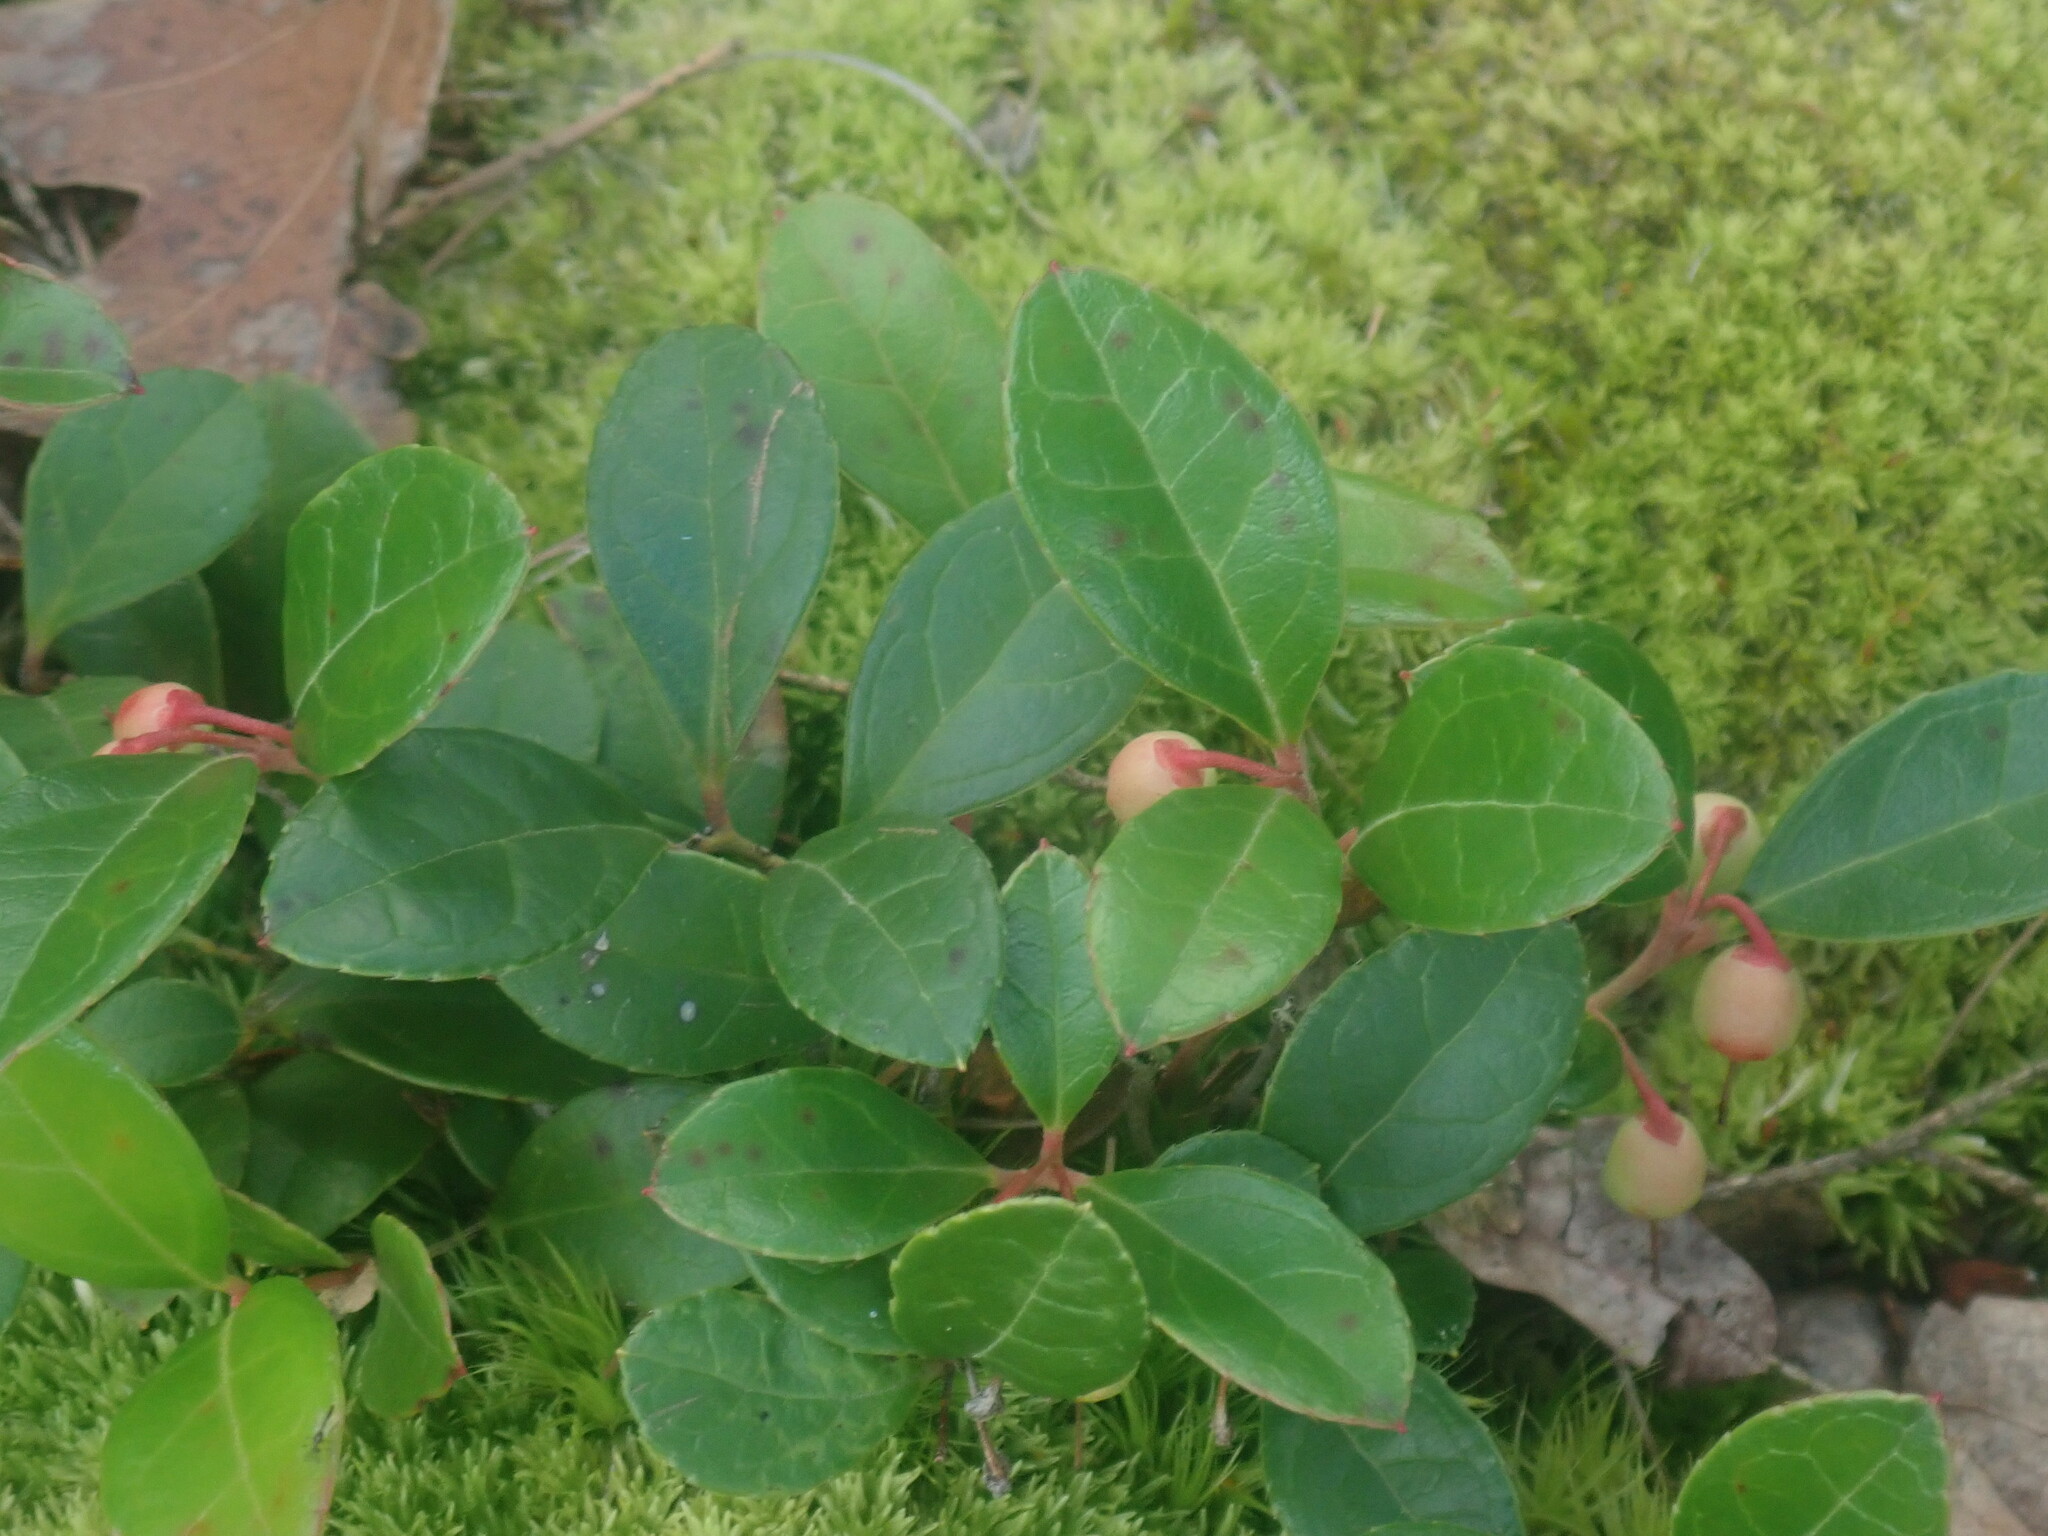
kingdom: Plantae
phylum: Tracheophyta
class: Magnoliopsida
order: Ericales
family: Ericaceae
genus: Gaultheria
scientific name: Gaultheria procumbens
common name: Checkerberry
